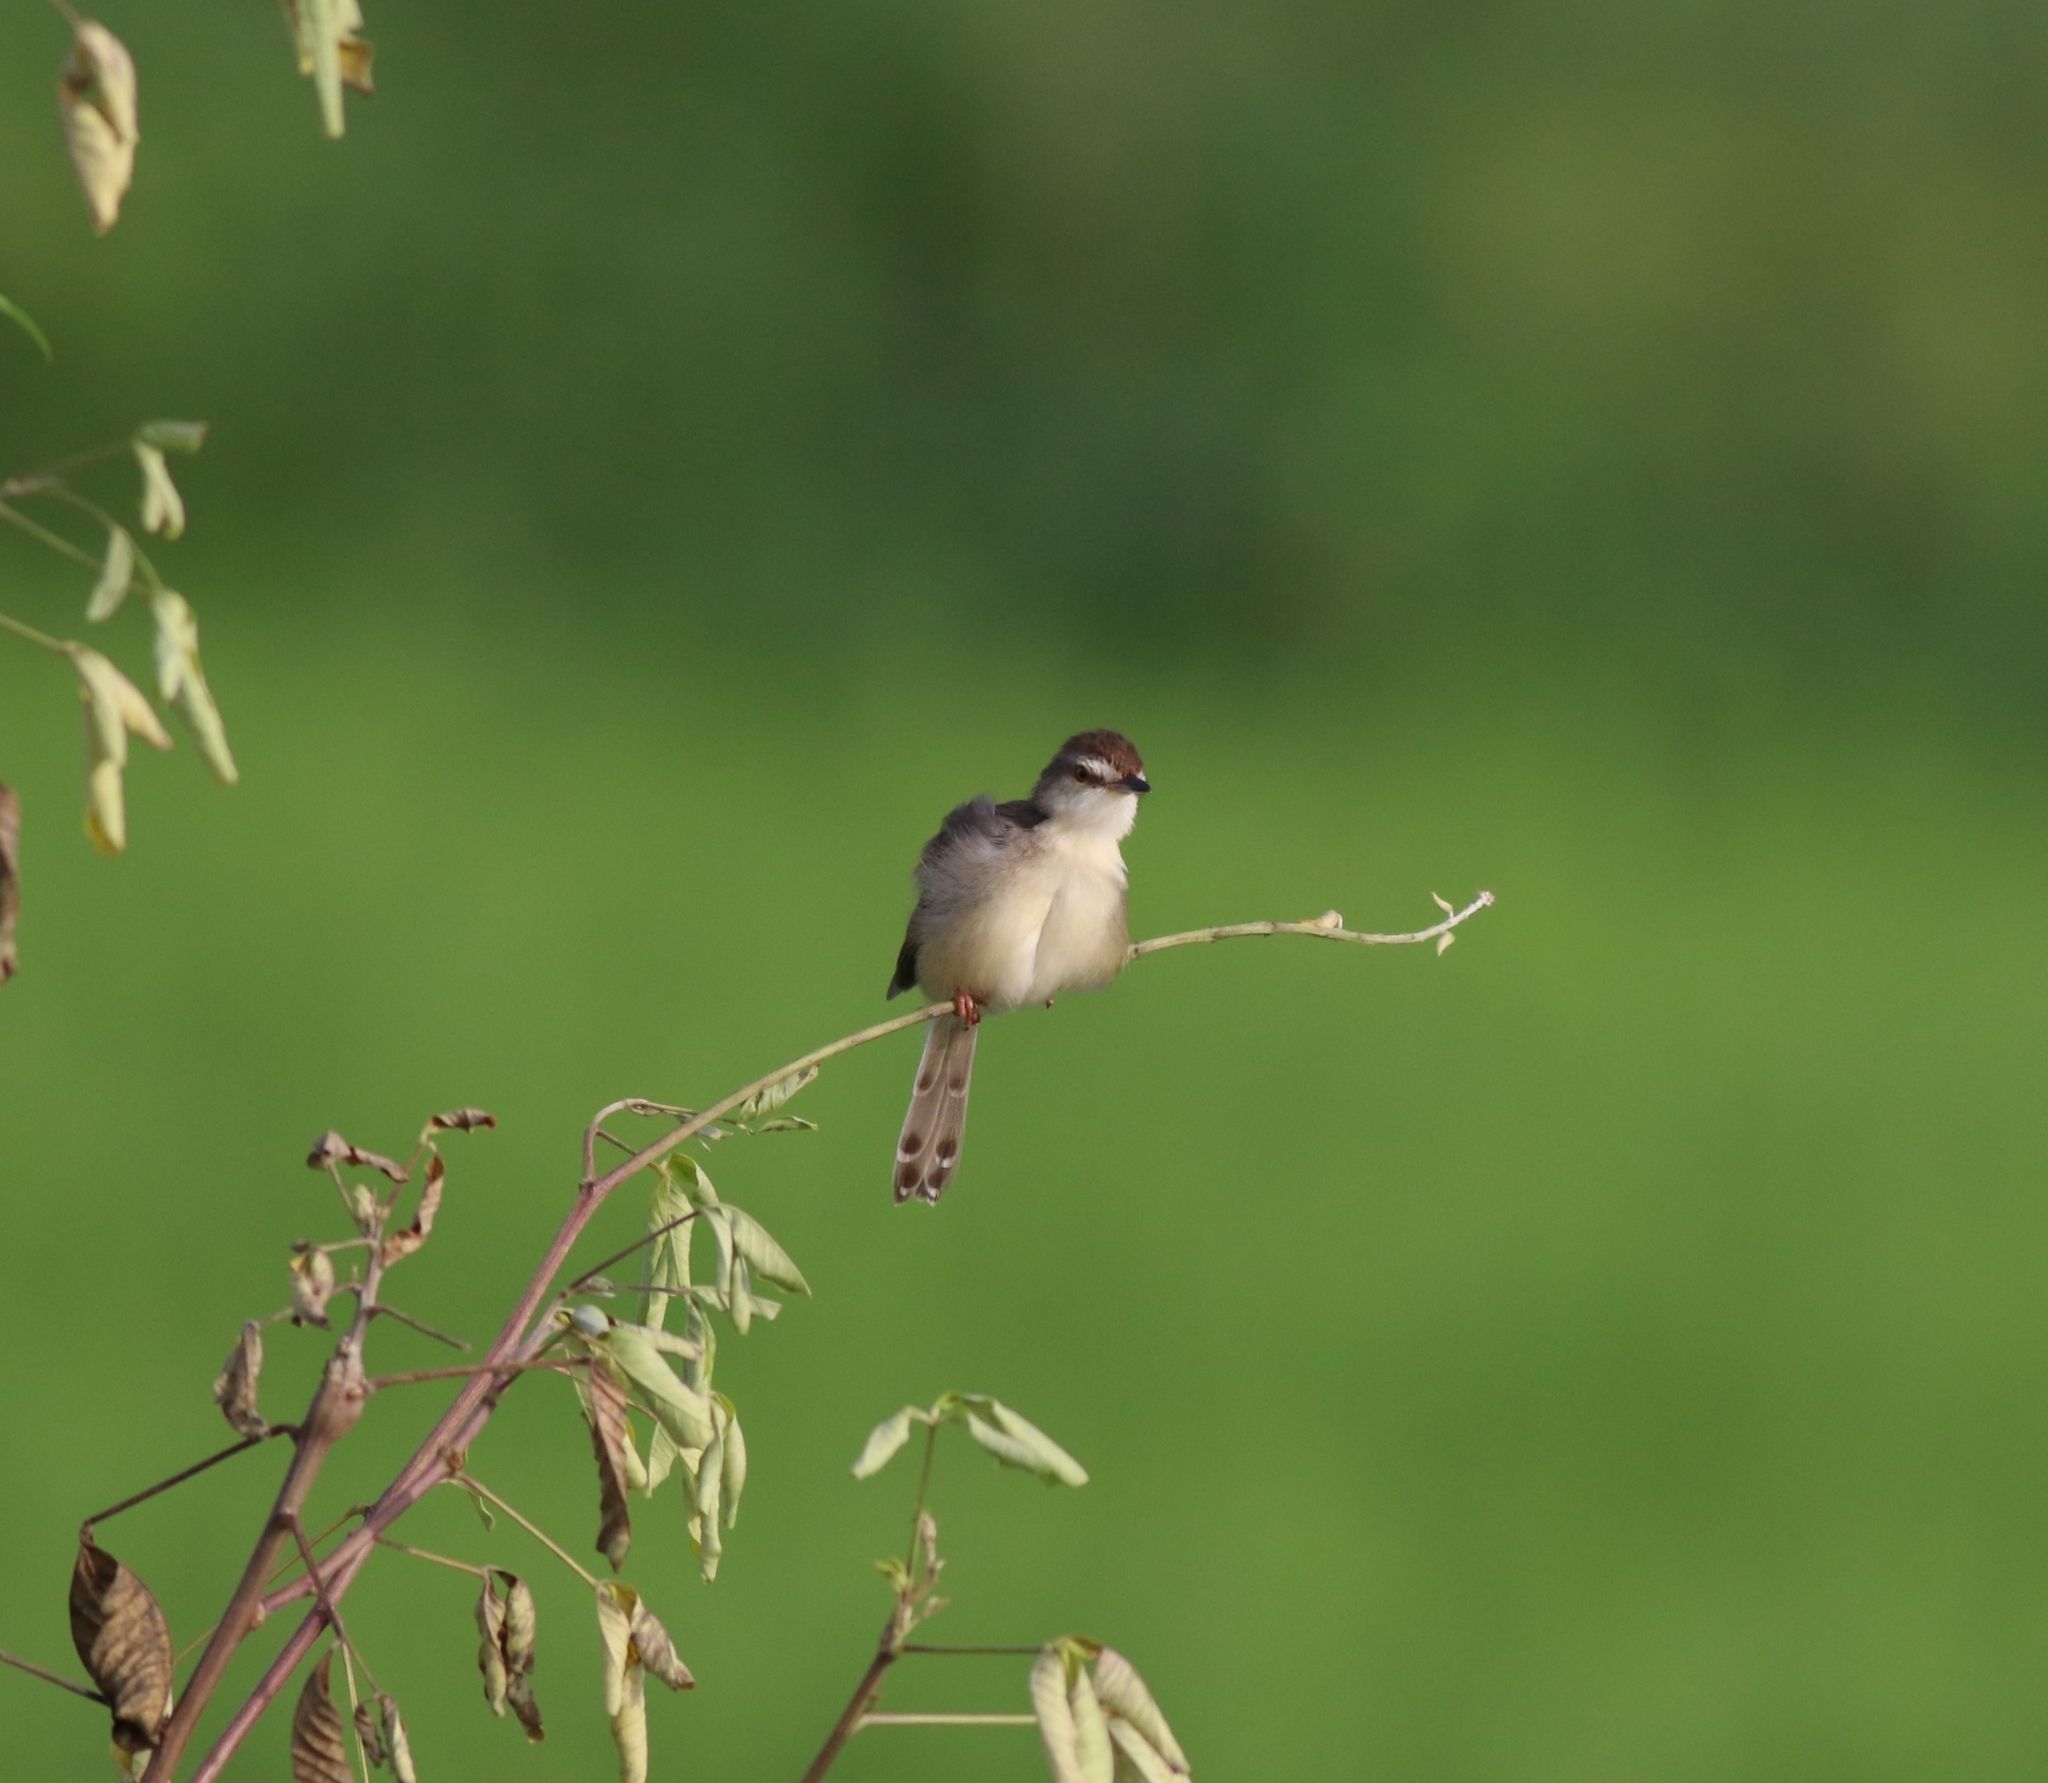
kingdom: Animalia
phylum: Chordata
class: Aves
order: Passeriformes
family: Cisticolidae
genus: Prinia
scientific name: Prinia inornata
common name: Plain prinia
